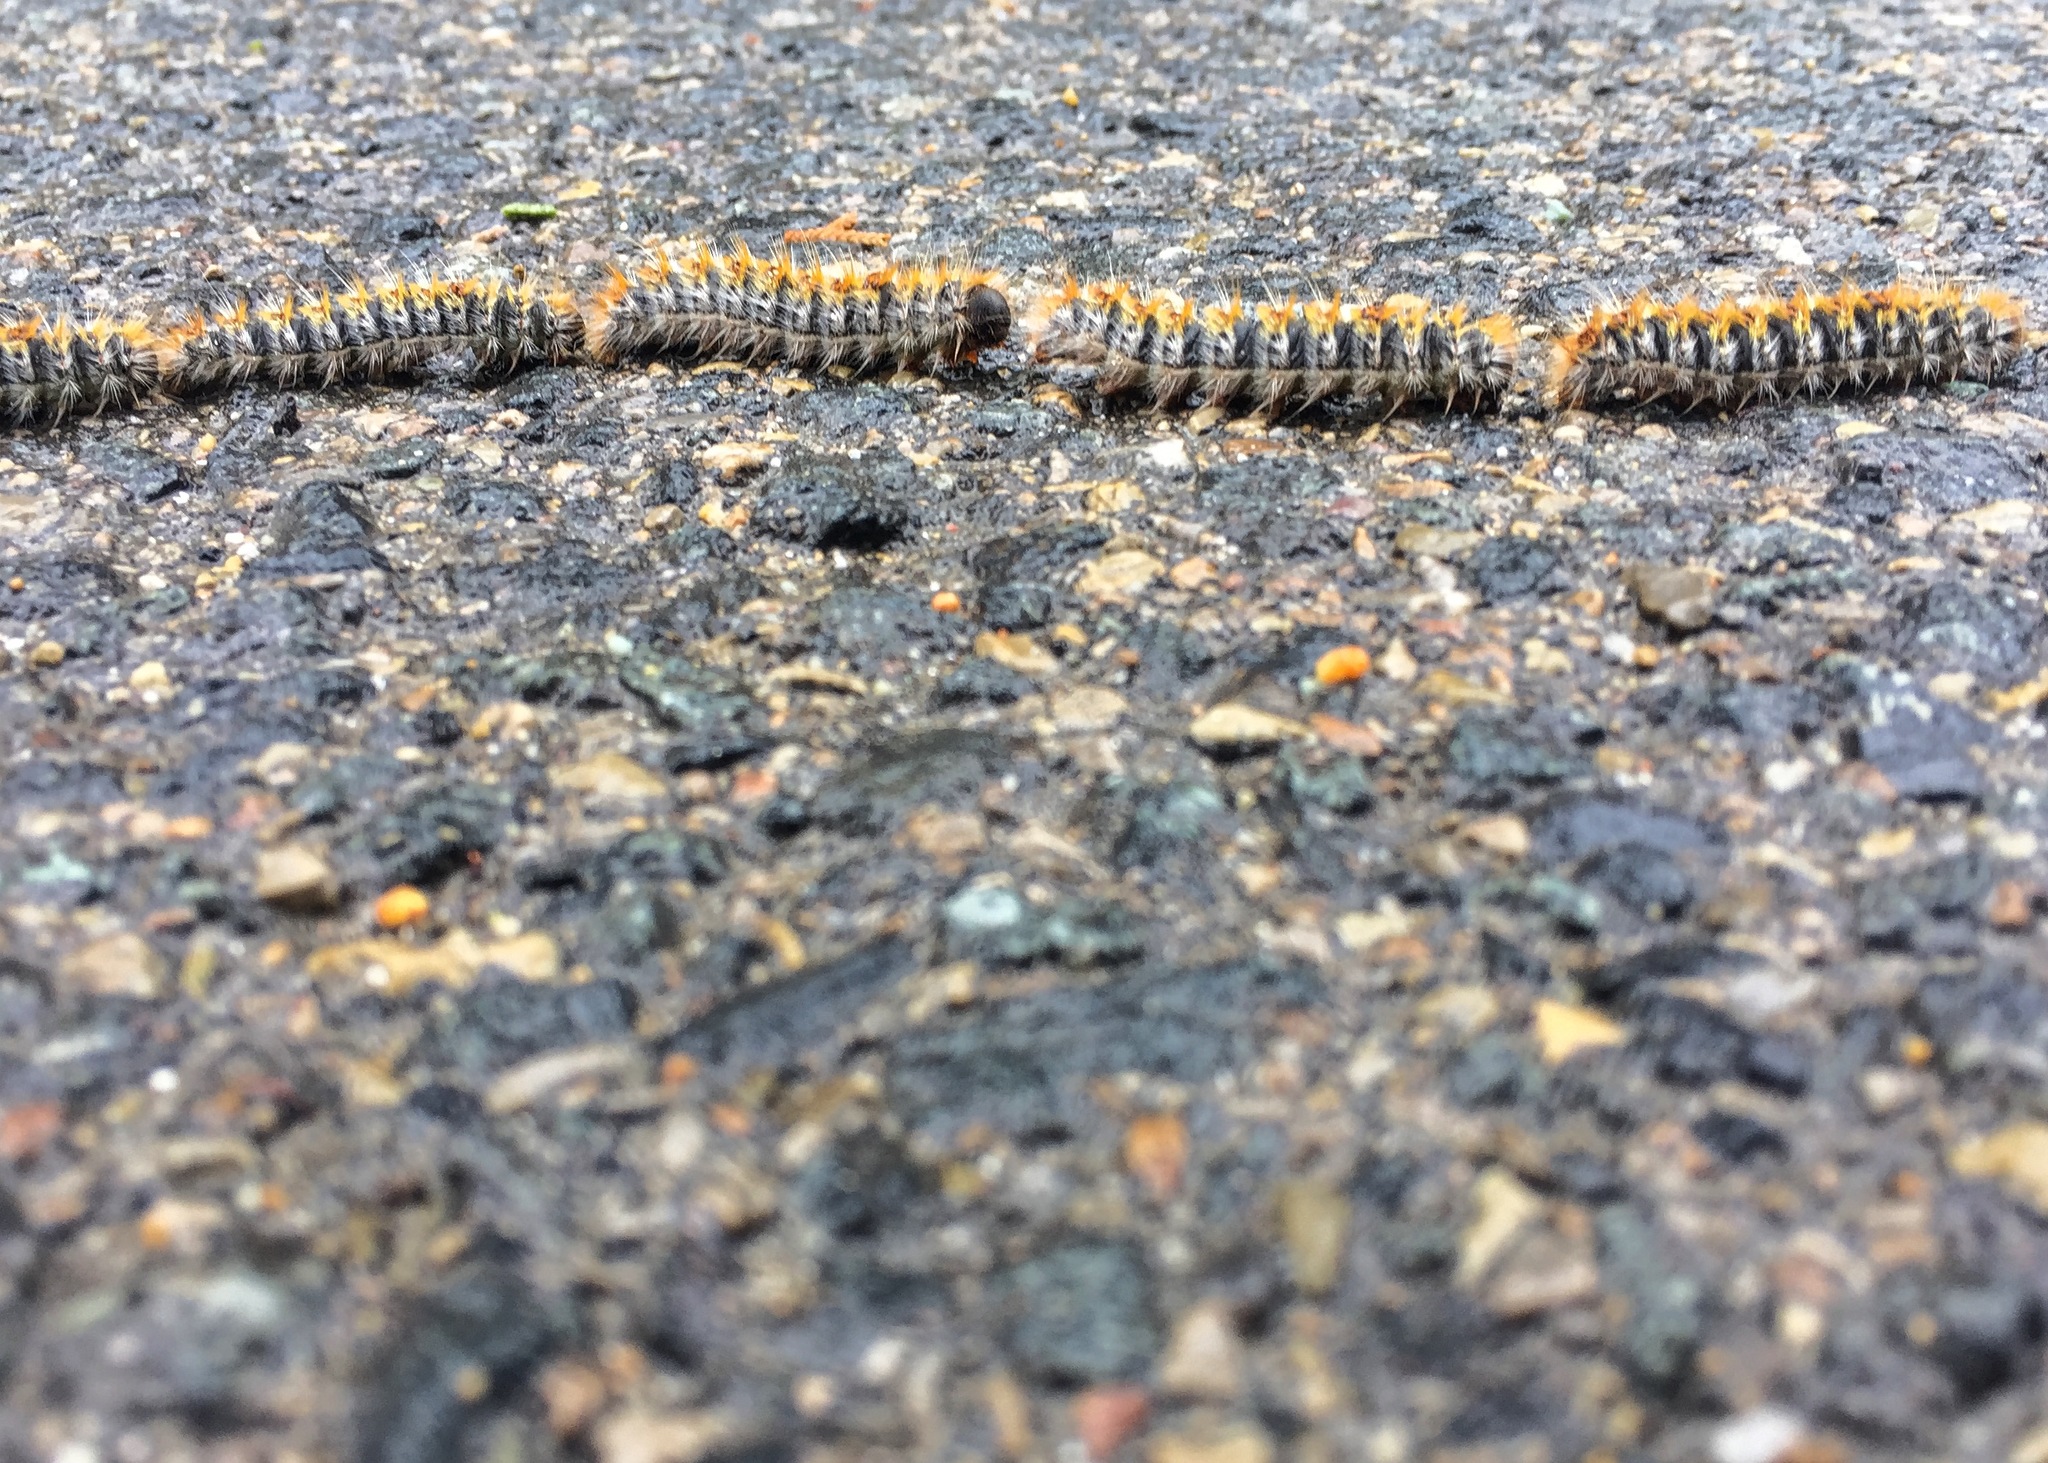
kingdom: Animalia
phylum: Arthropoda
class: Insecta
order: Lepidoptera
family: Notodontidae
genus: Thaumetopoea
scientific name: Thaumetopoea pityocampa
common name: Pine processionary
